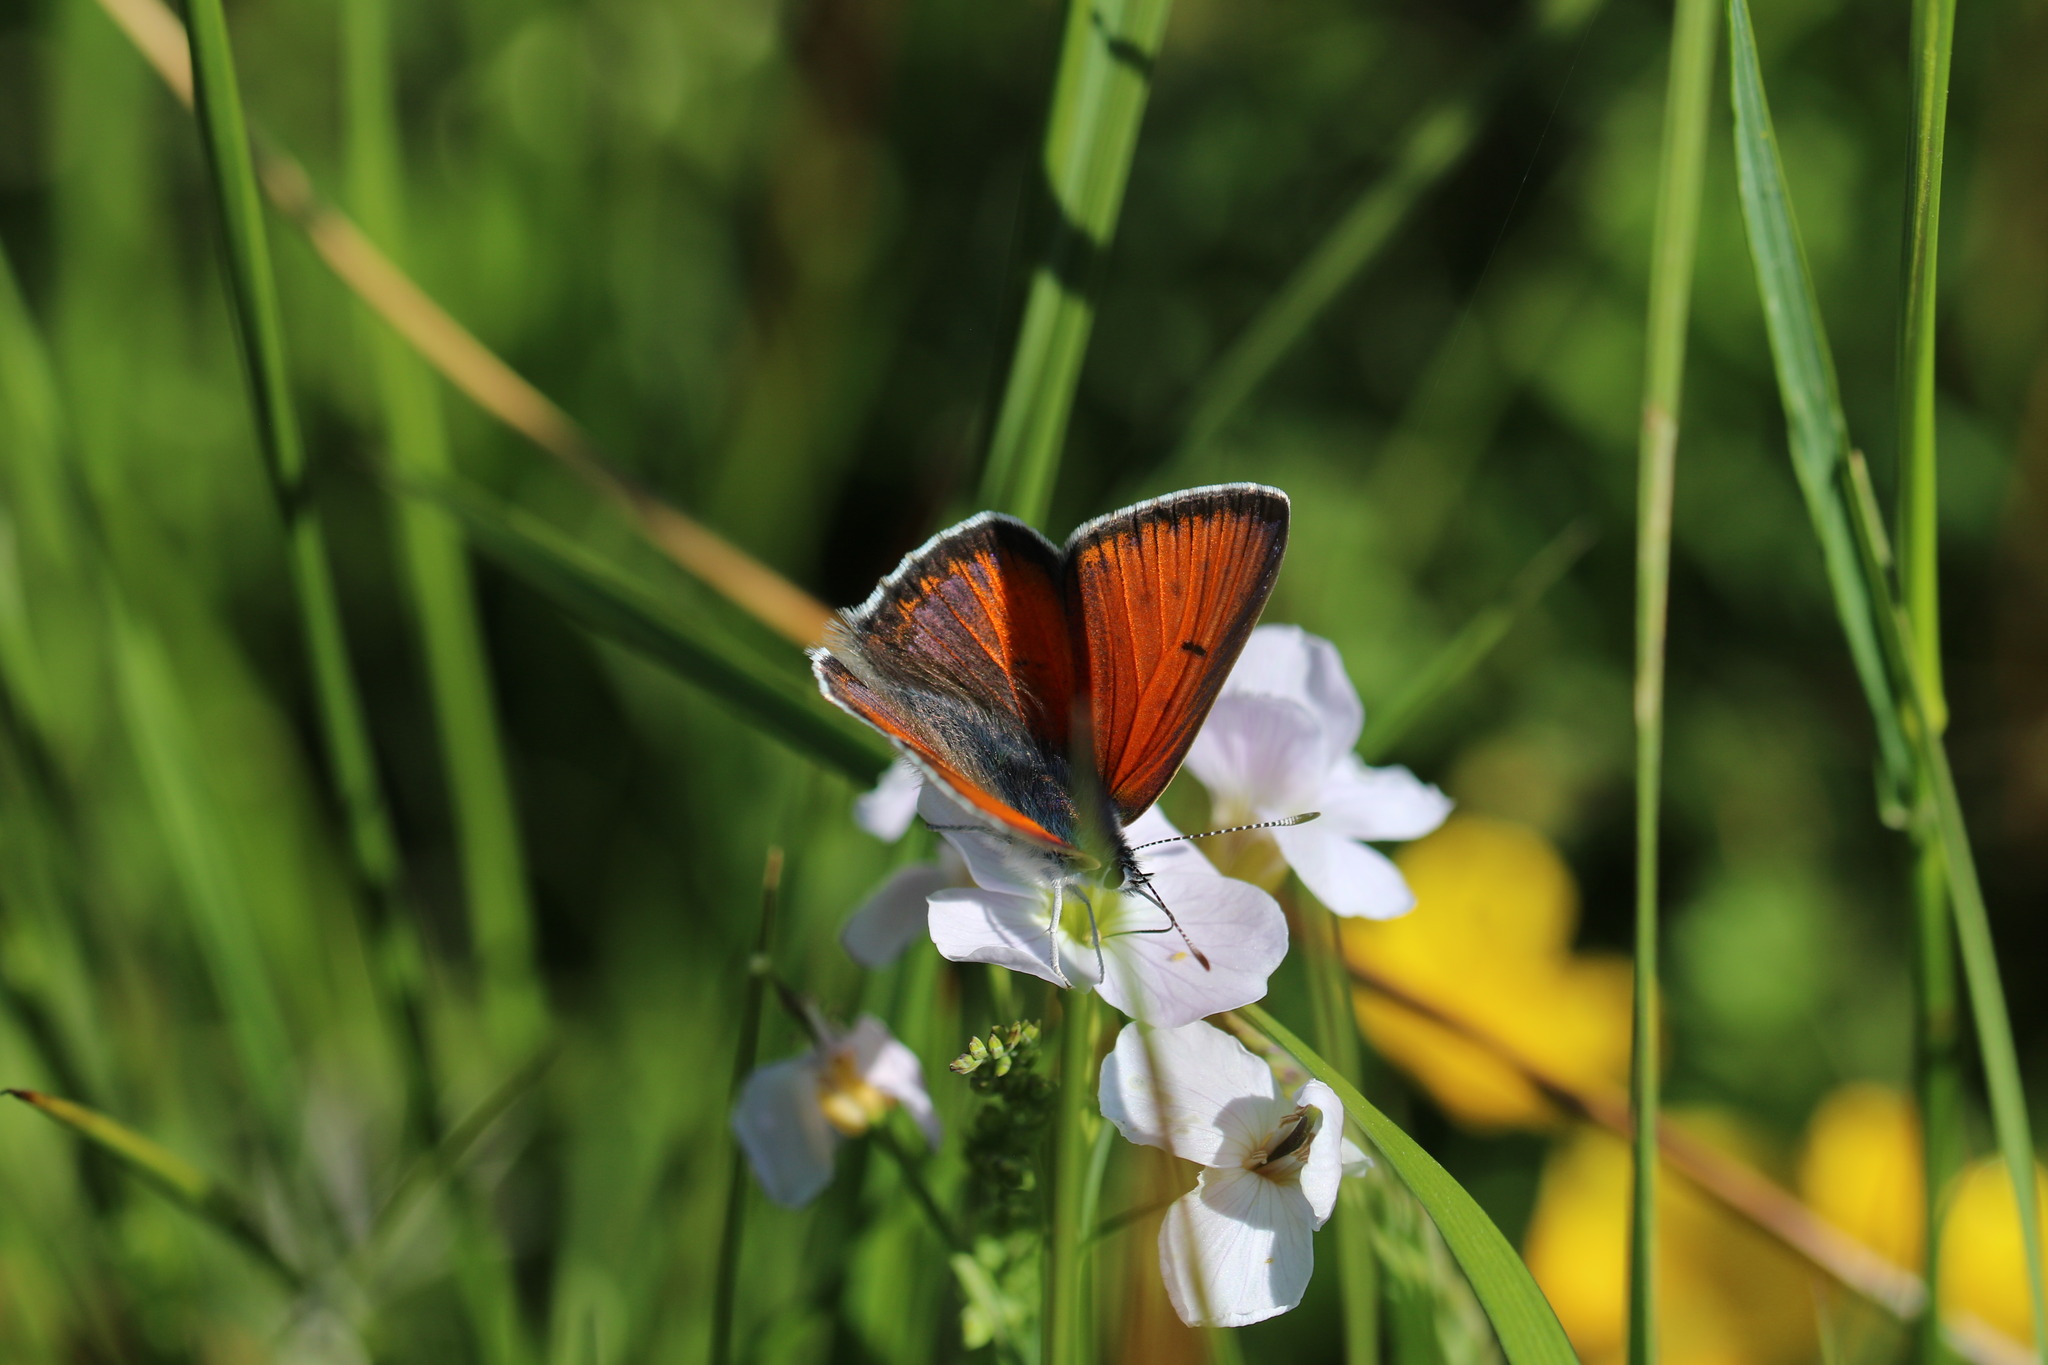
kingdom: Animalia
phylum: Arthropoda
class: Insecta
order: Lepidoptera
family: Lycaenidae
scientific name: Lycaenidae
